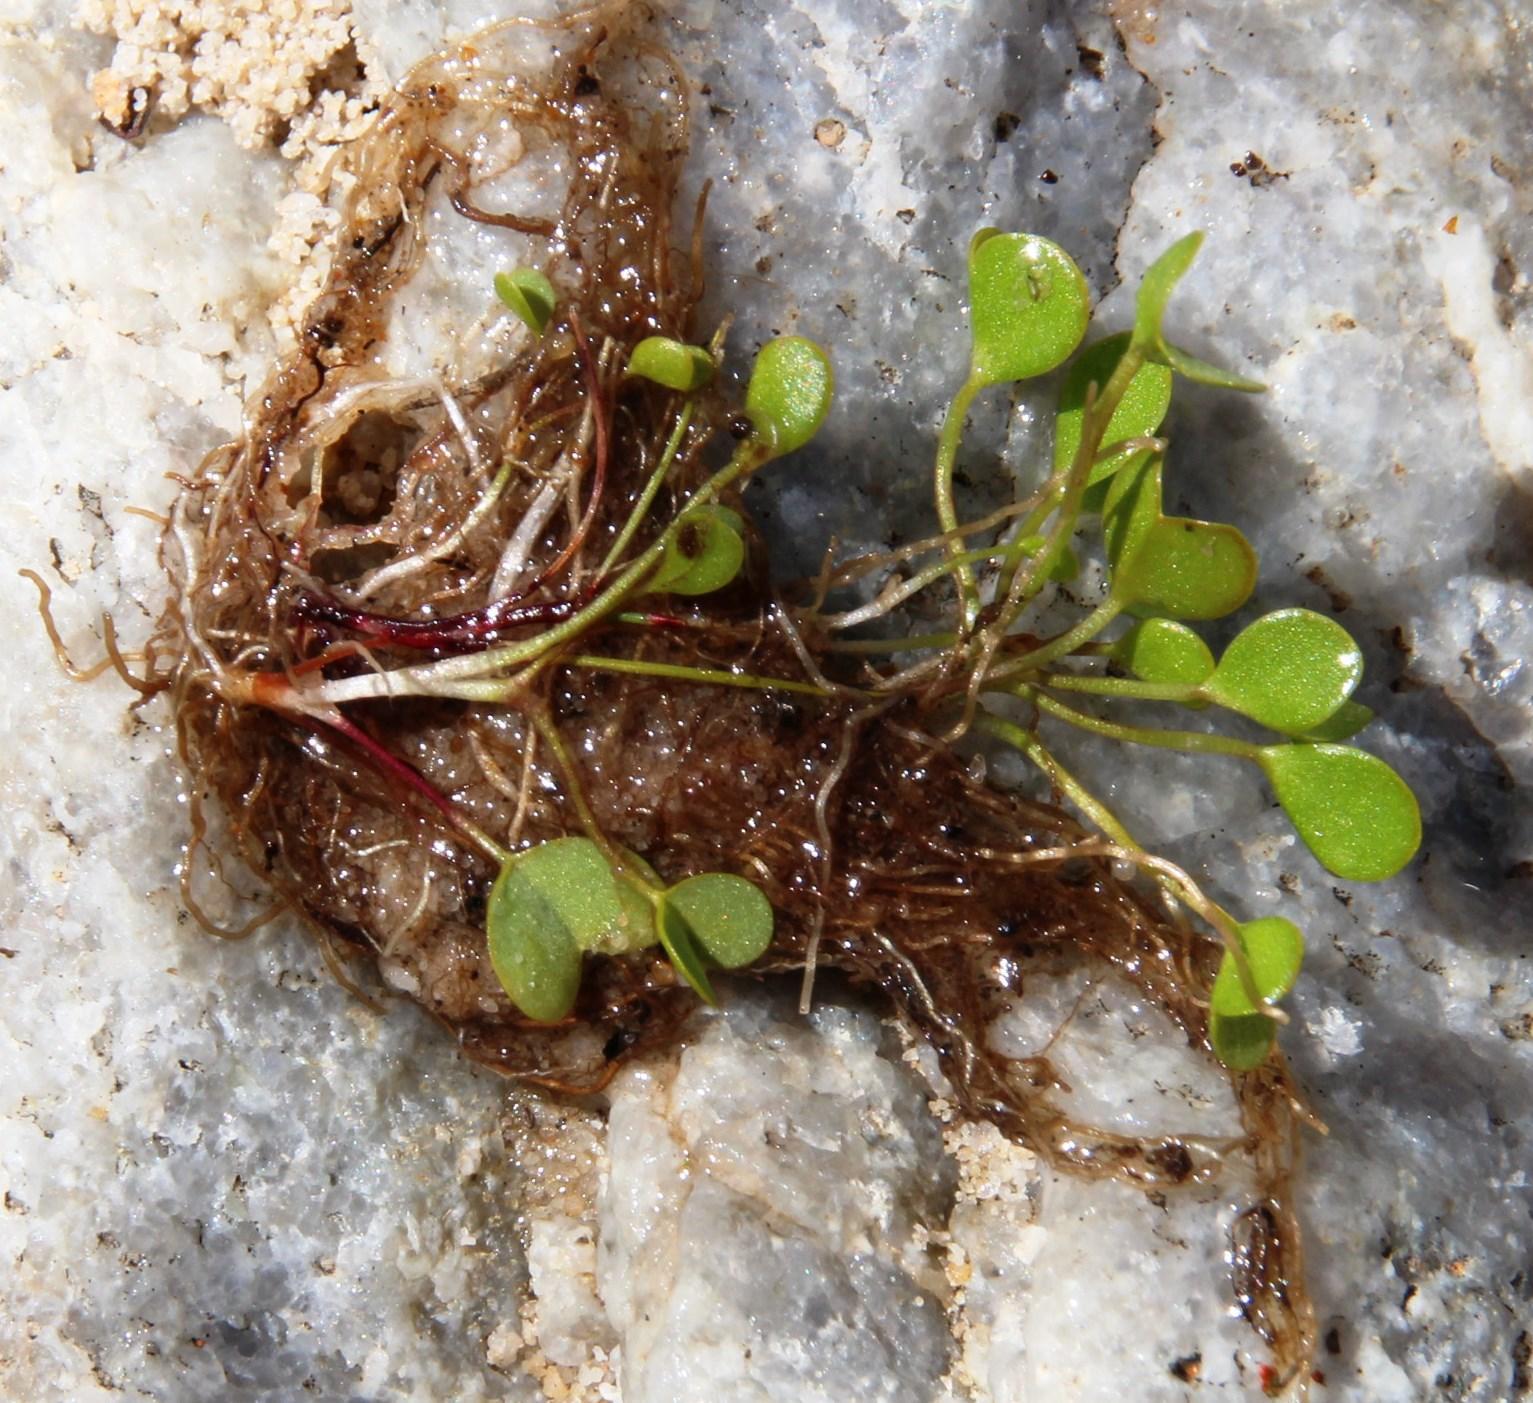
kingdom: Plantae
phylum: Tracheophyta
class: Magnoliopsida
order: Oxalidales
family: Oxalidaceae
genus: Oxalis
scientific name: Oxalis dregei
